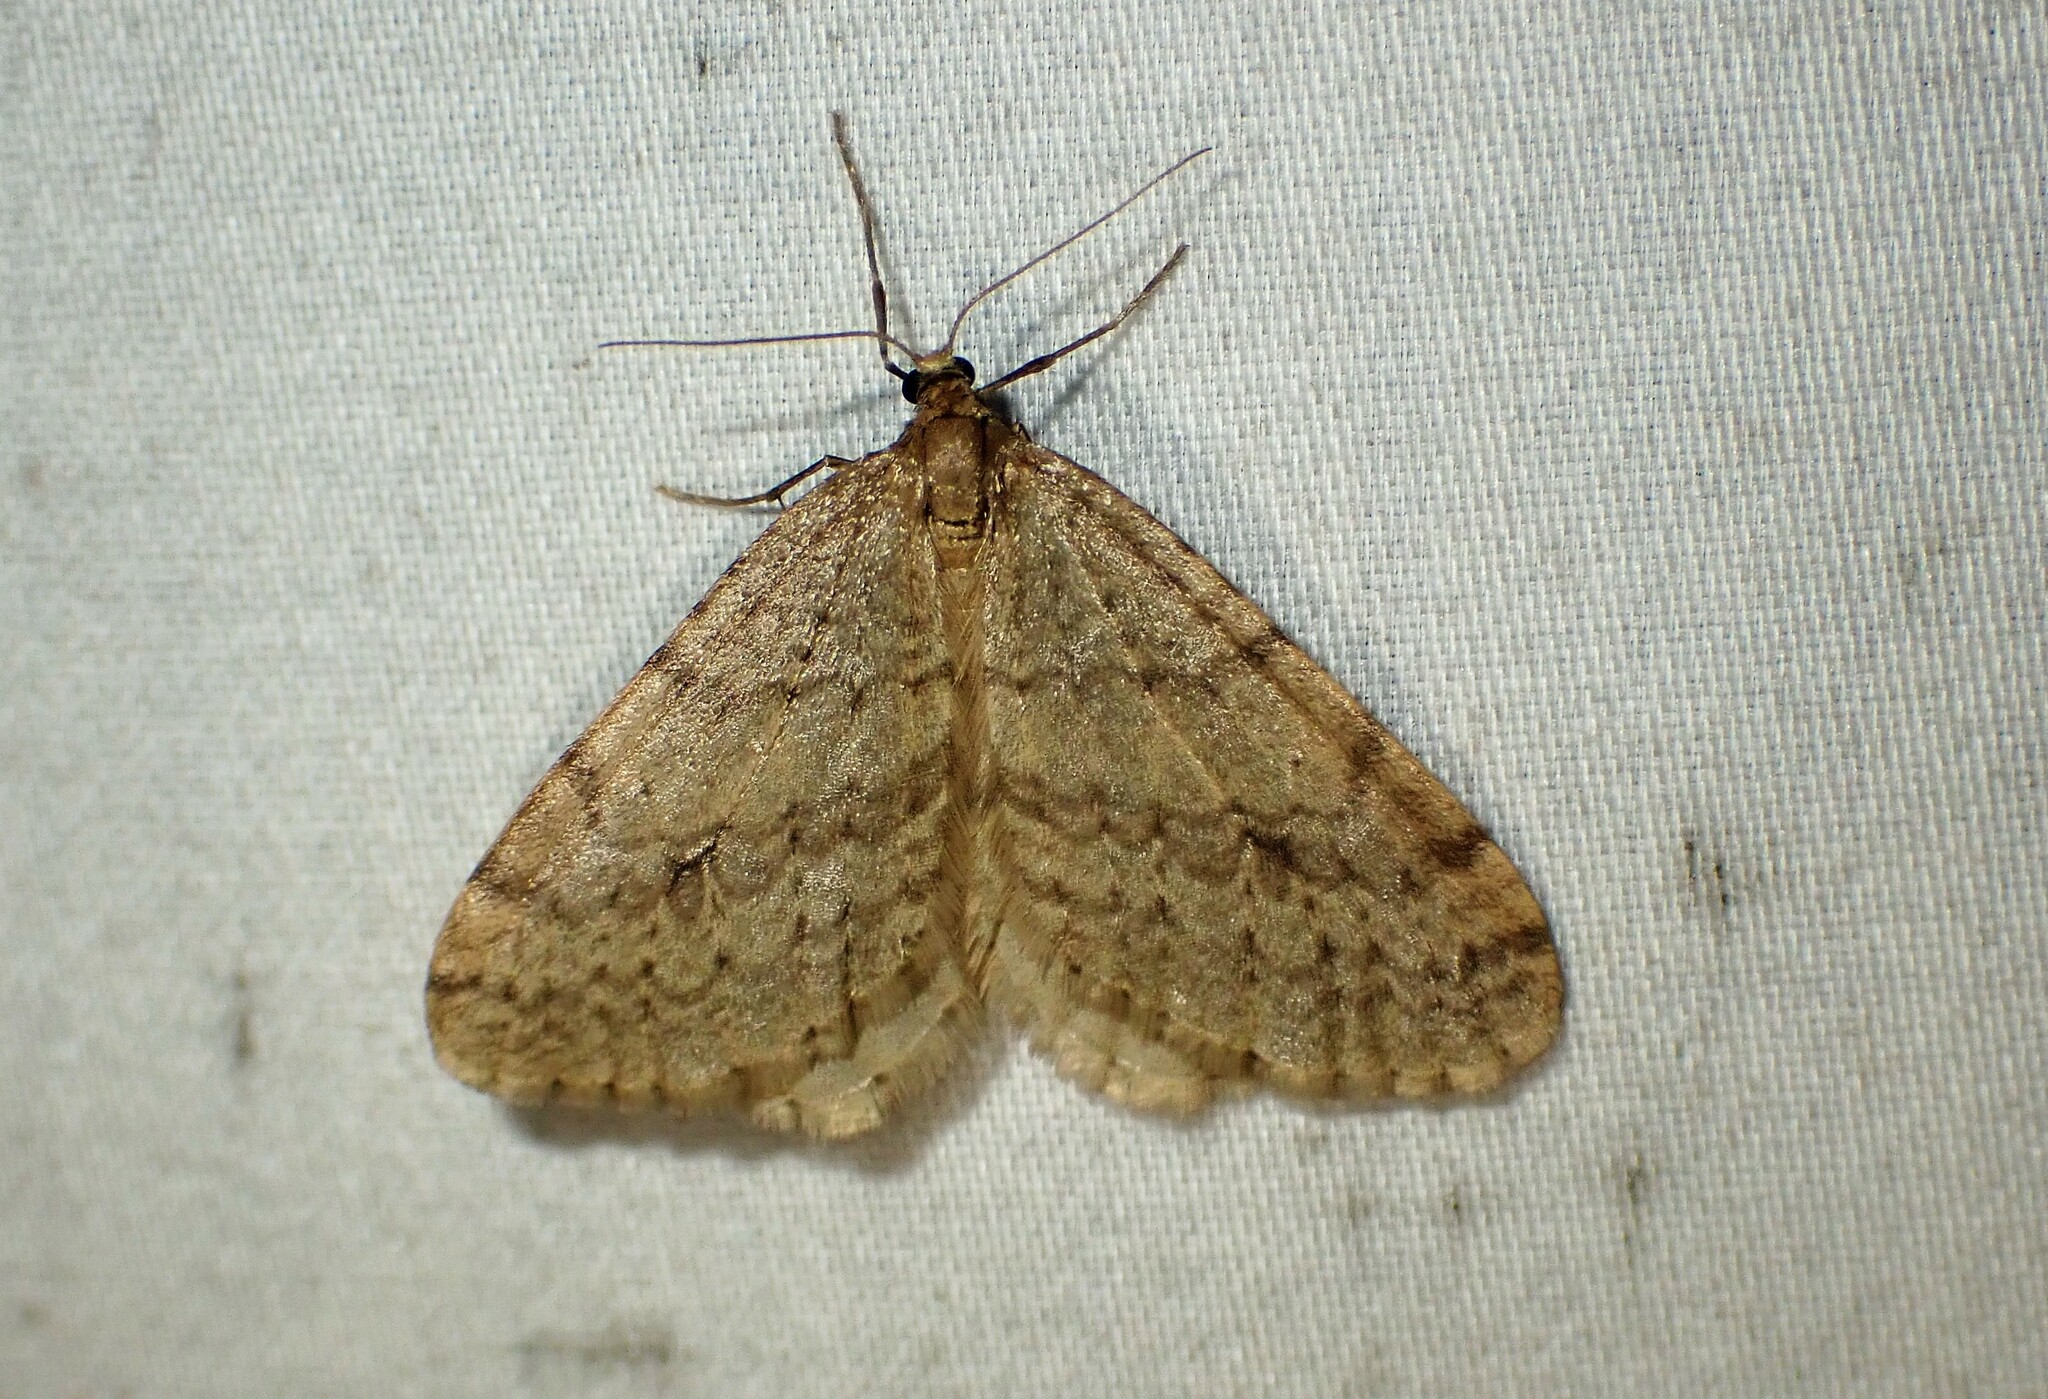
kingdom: Animalia
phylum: Arthropoda
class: Insecta
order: Lepidoptera
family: Geometridae
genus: Operophtera
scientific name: Operophtera bruceata
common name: Bruce spanworm
